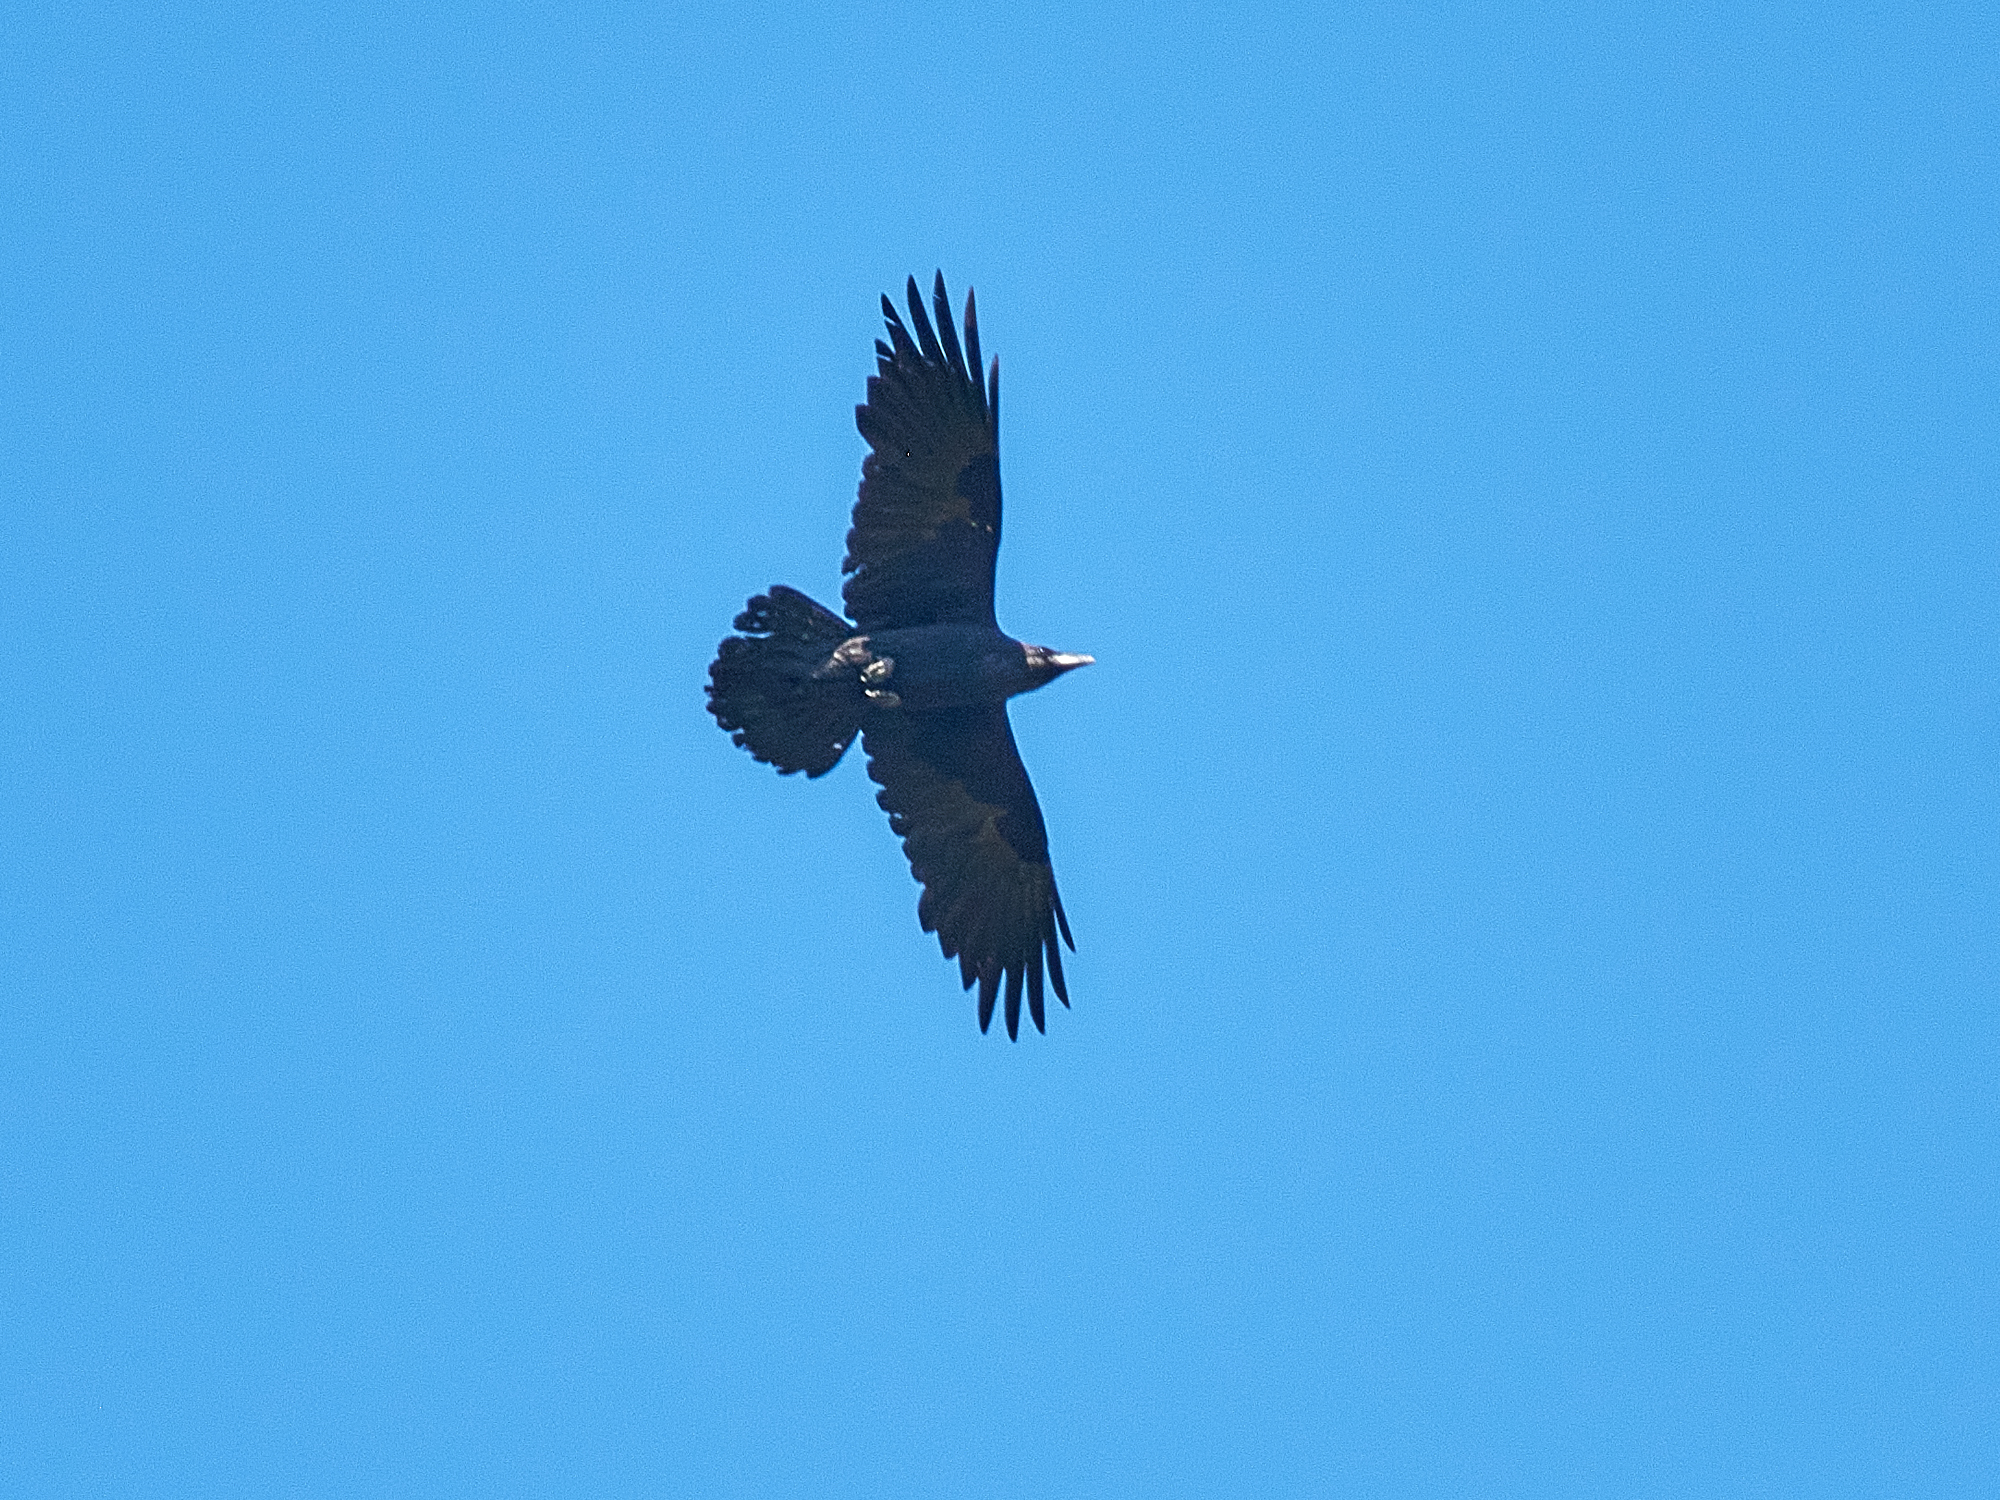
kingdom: Animalia
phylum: Chordata
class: Aves
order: Passeriformes
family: Corvidae
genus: Corvus
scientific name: Corvus corax
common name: Common raven
